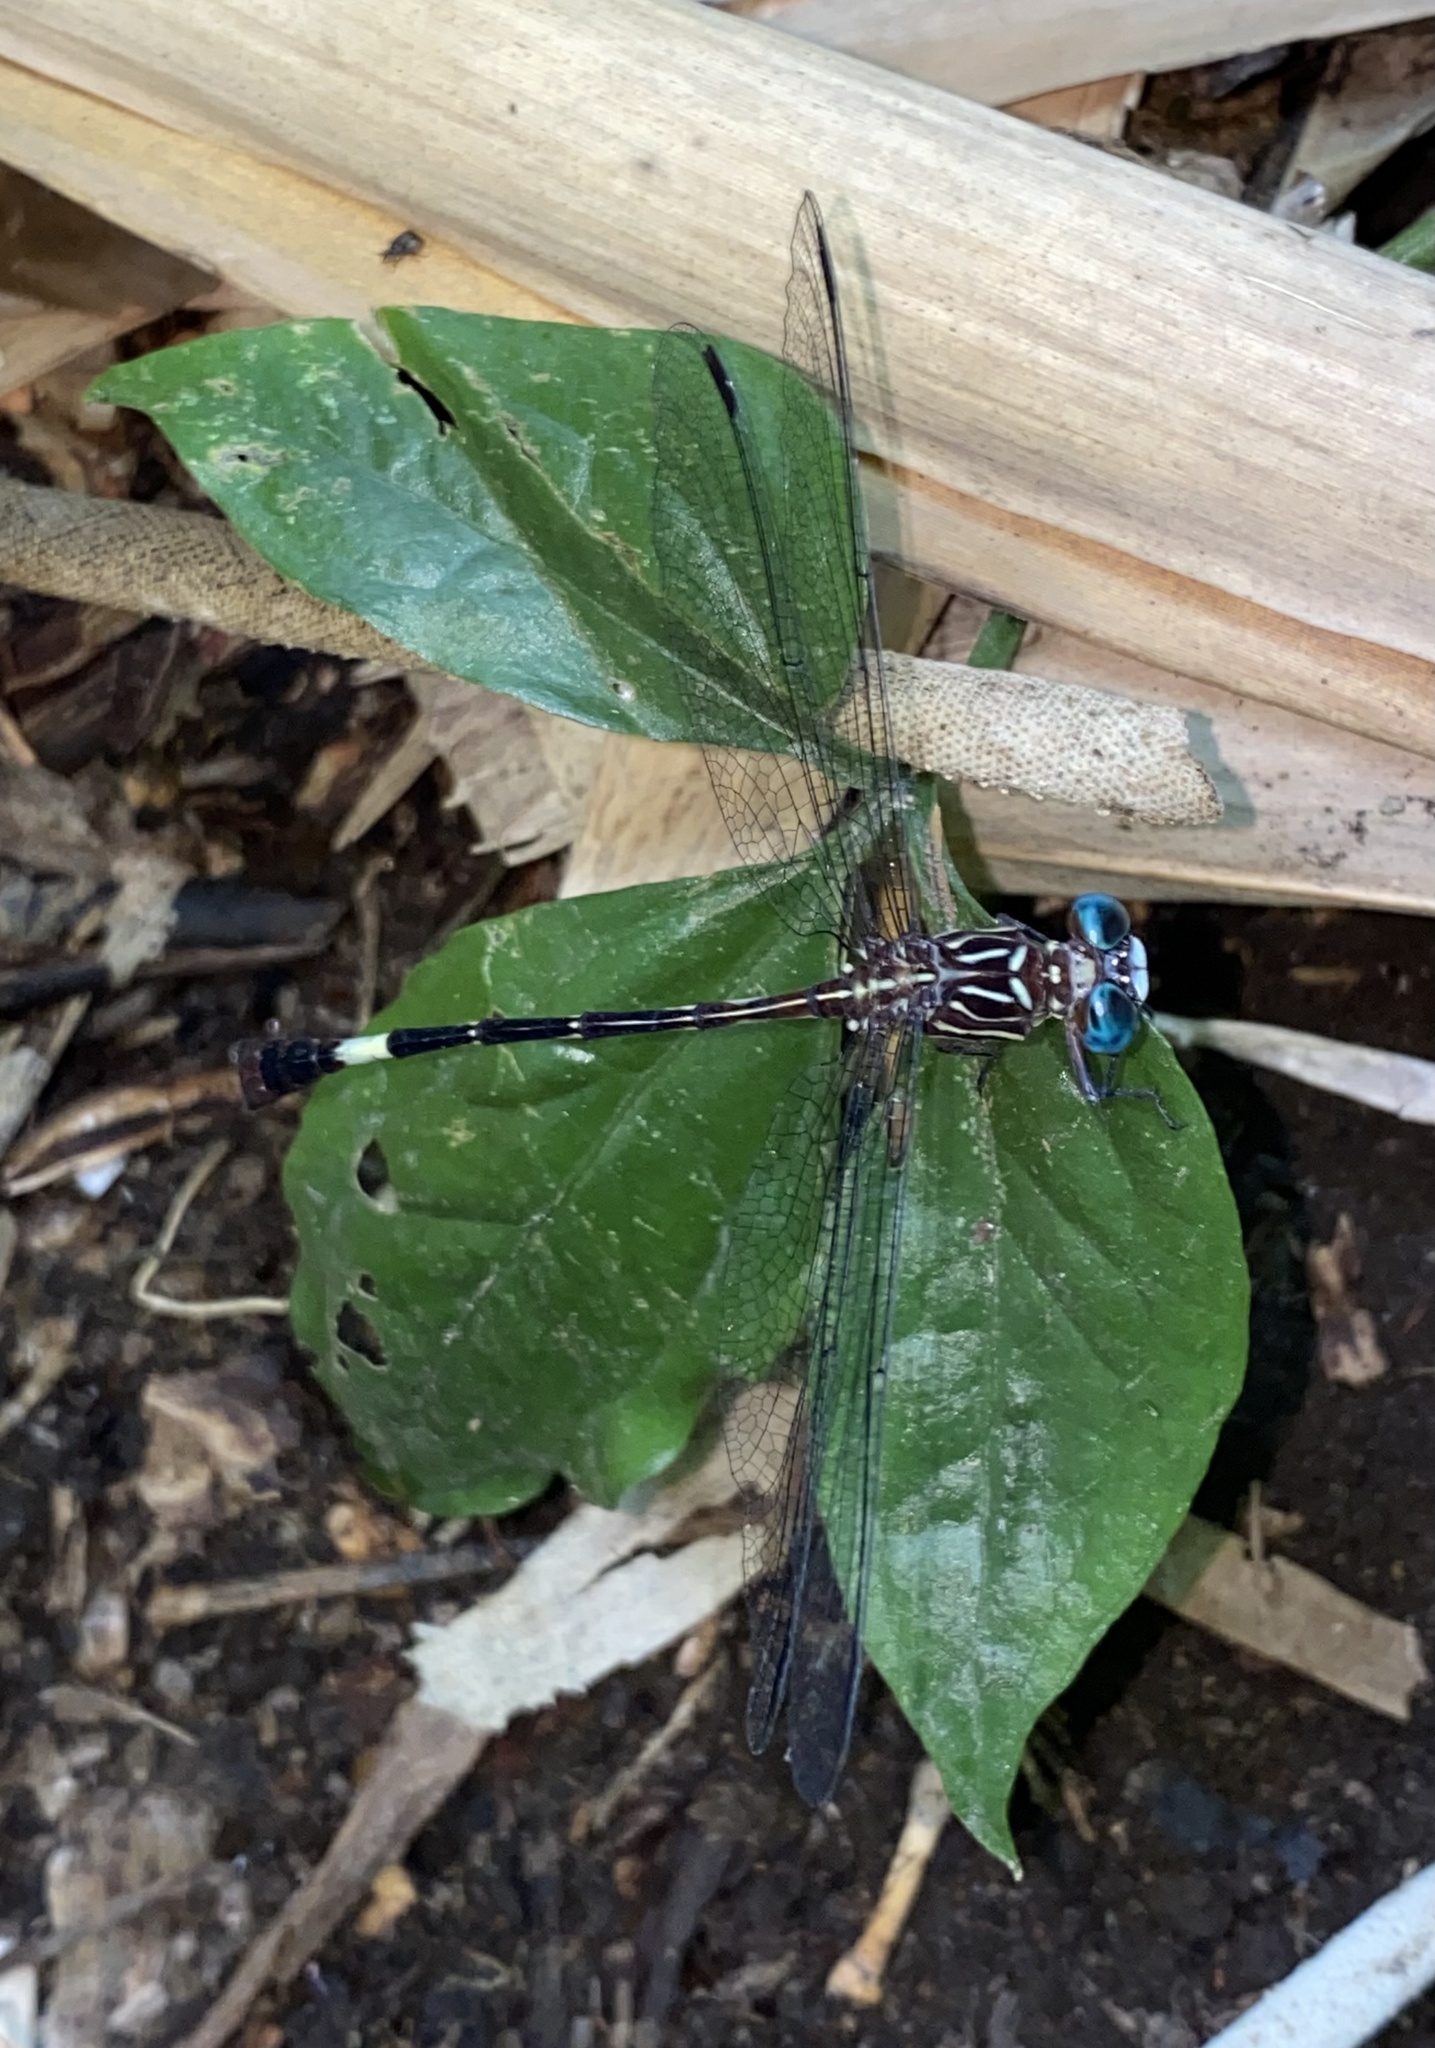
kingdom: Animalia
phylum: Arthropoda
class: Insecta
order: Odonata
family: Gomphidae
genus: Epigomphus
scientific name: Epigomphus subobtusus
